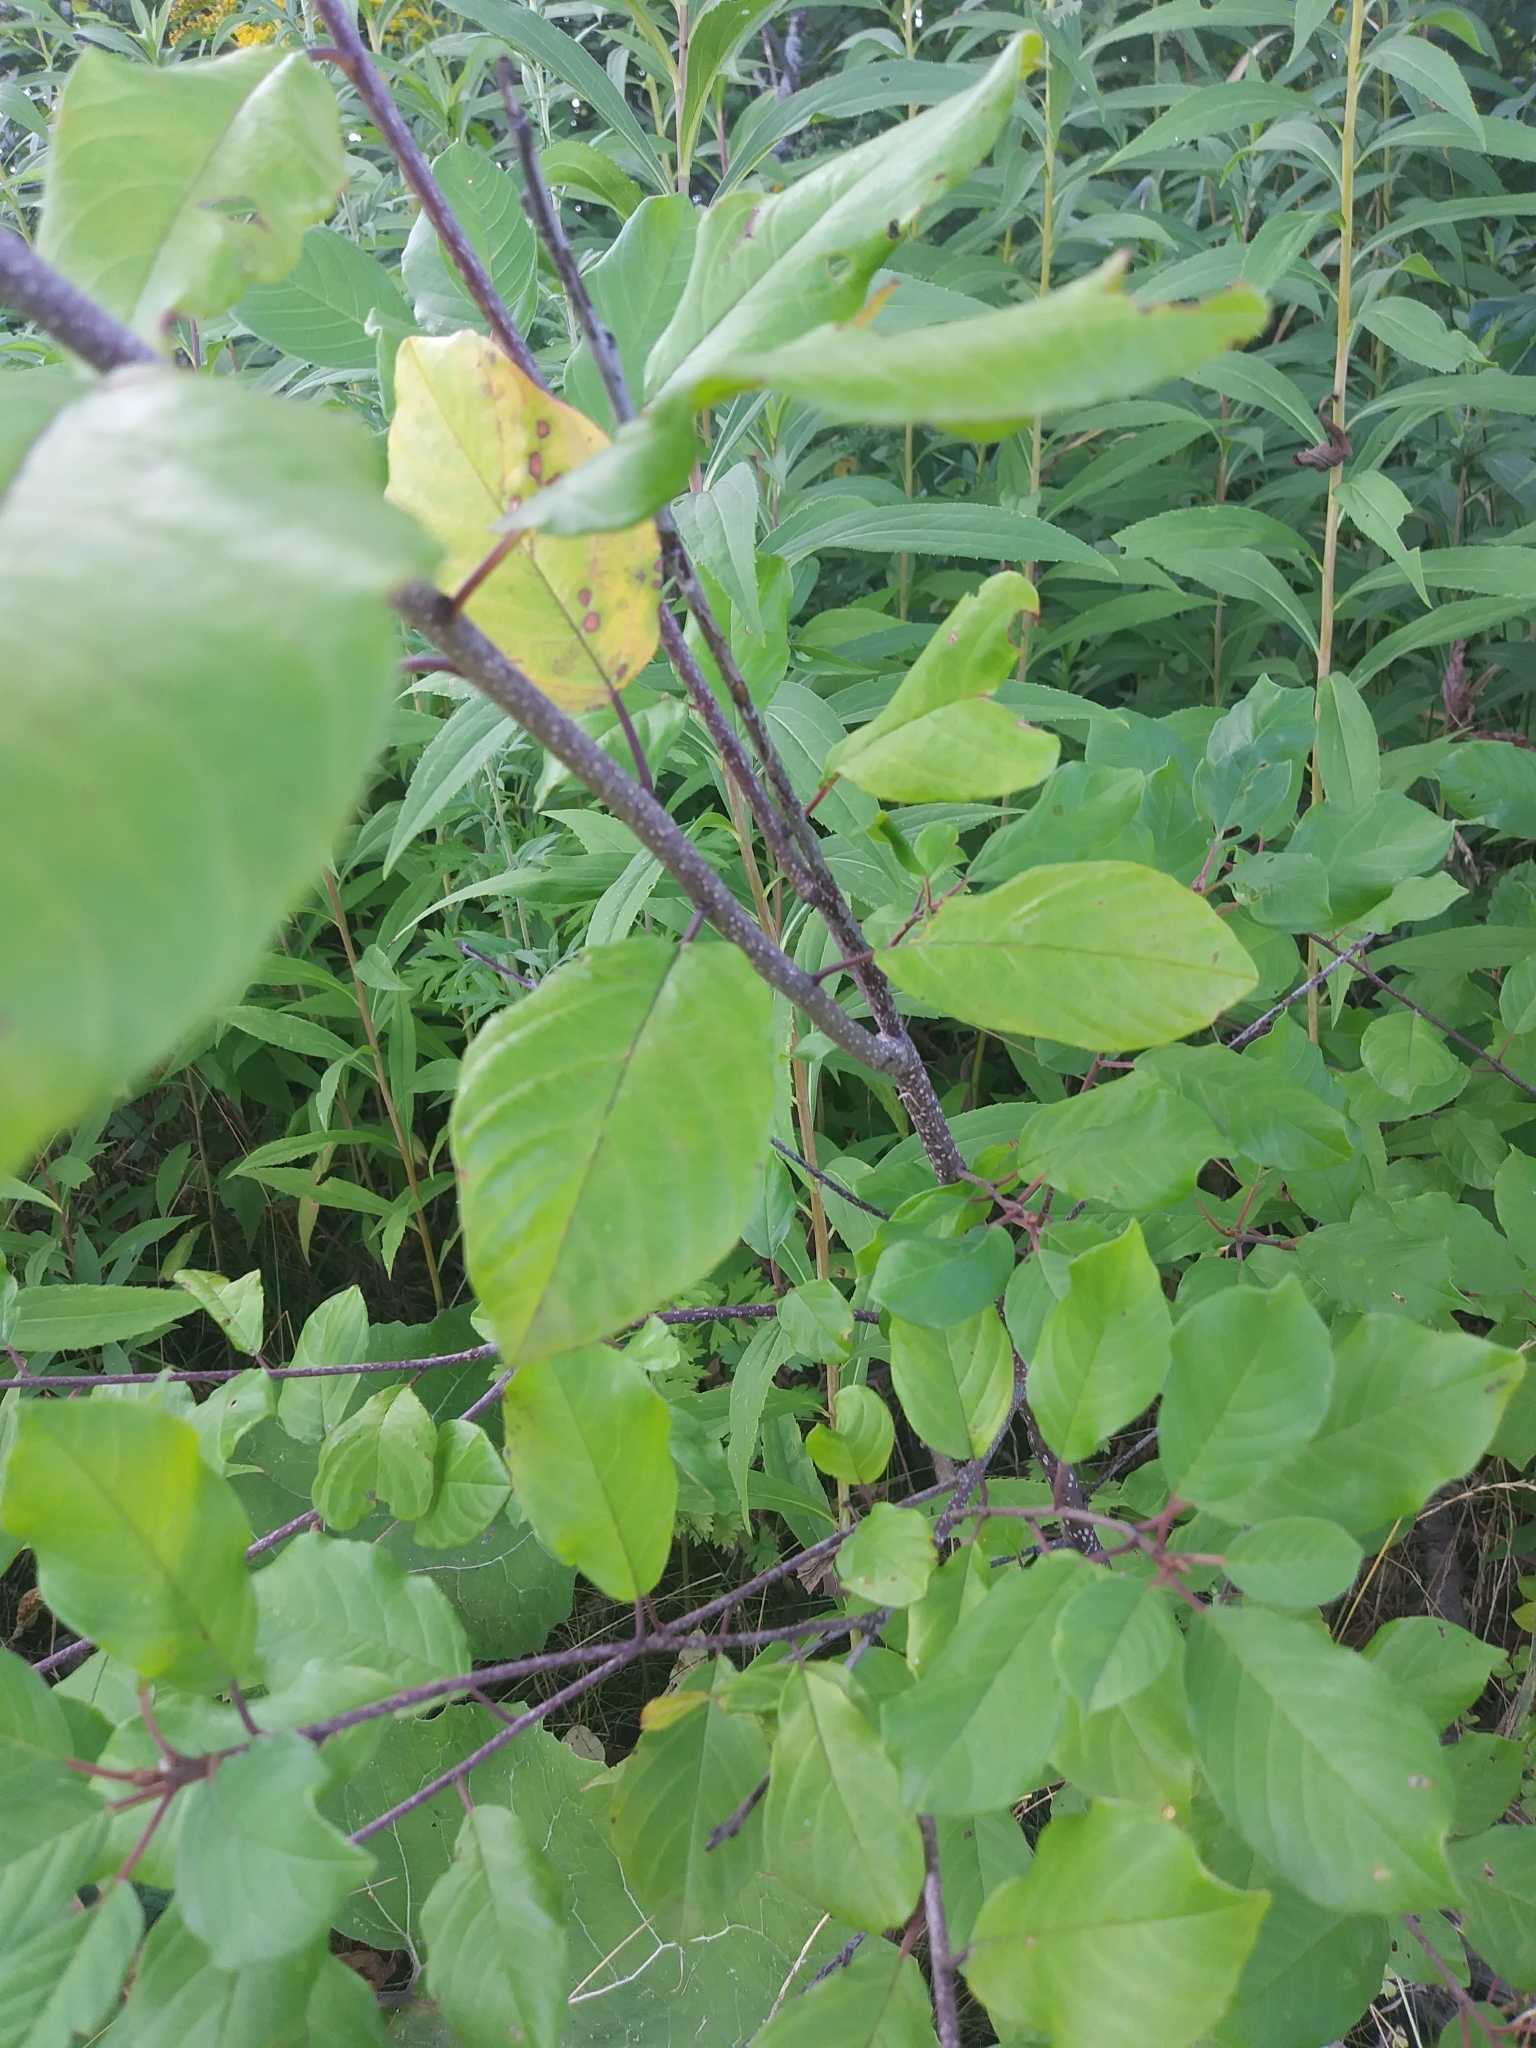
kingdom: Plantae
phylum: Tracheophyta
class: Magnoliopsida
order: Rosales
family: Rhamnaceae
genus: Frangula
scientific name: Frangula alnus
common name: Alder buckthorn
